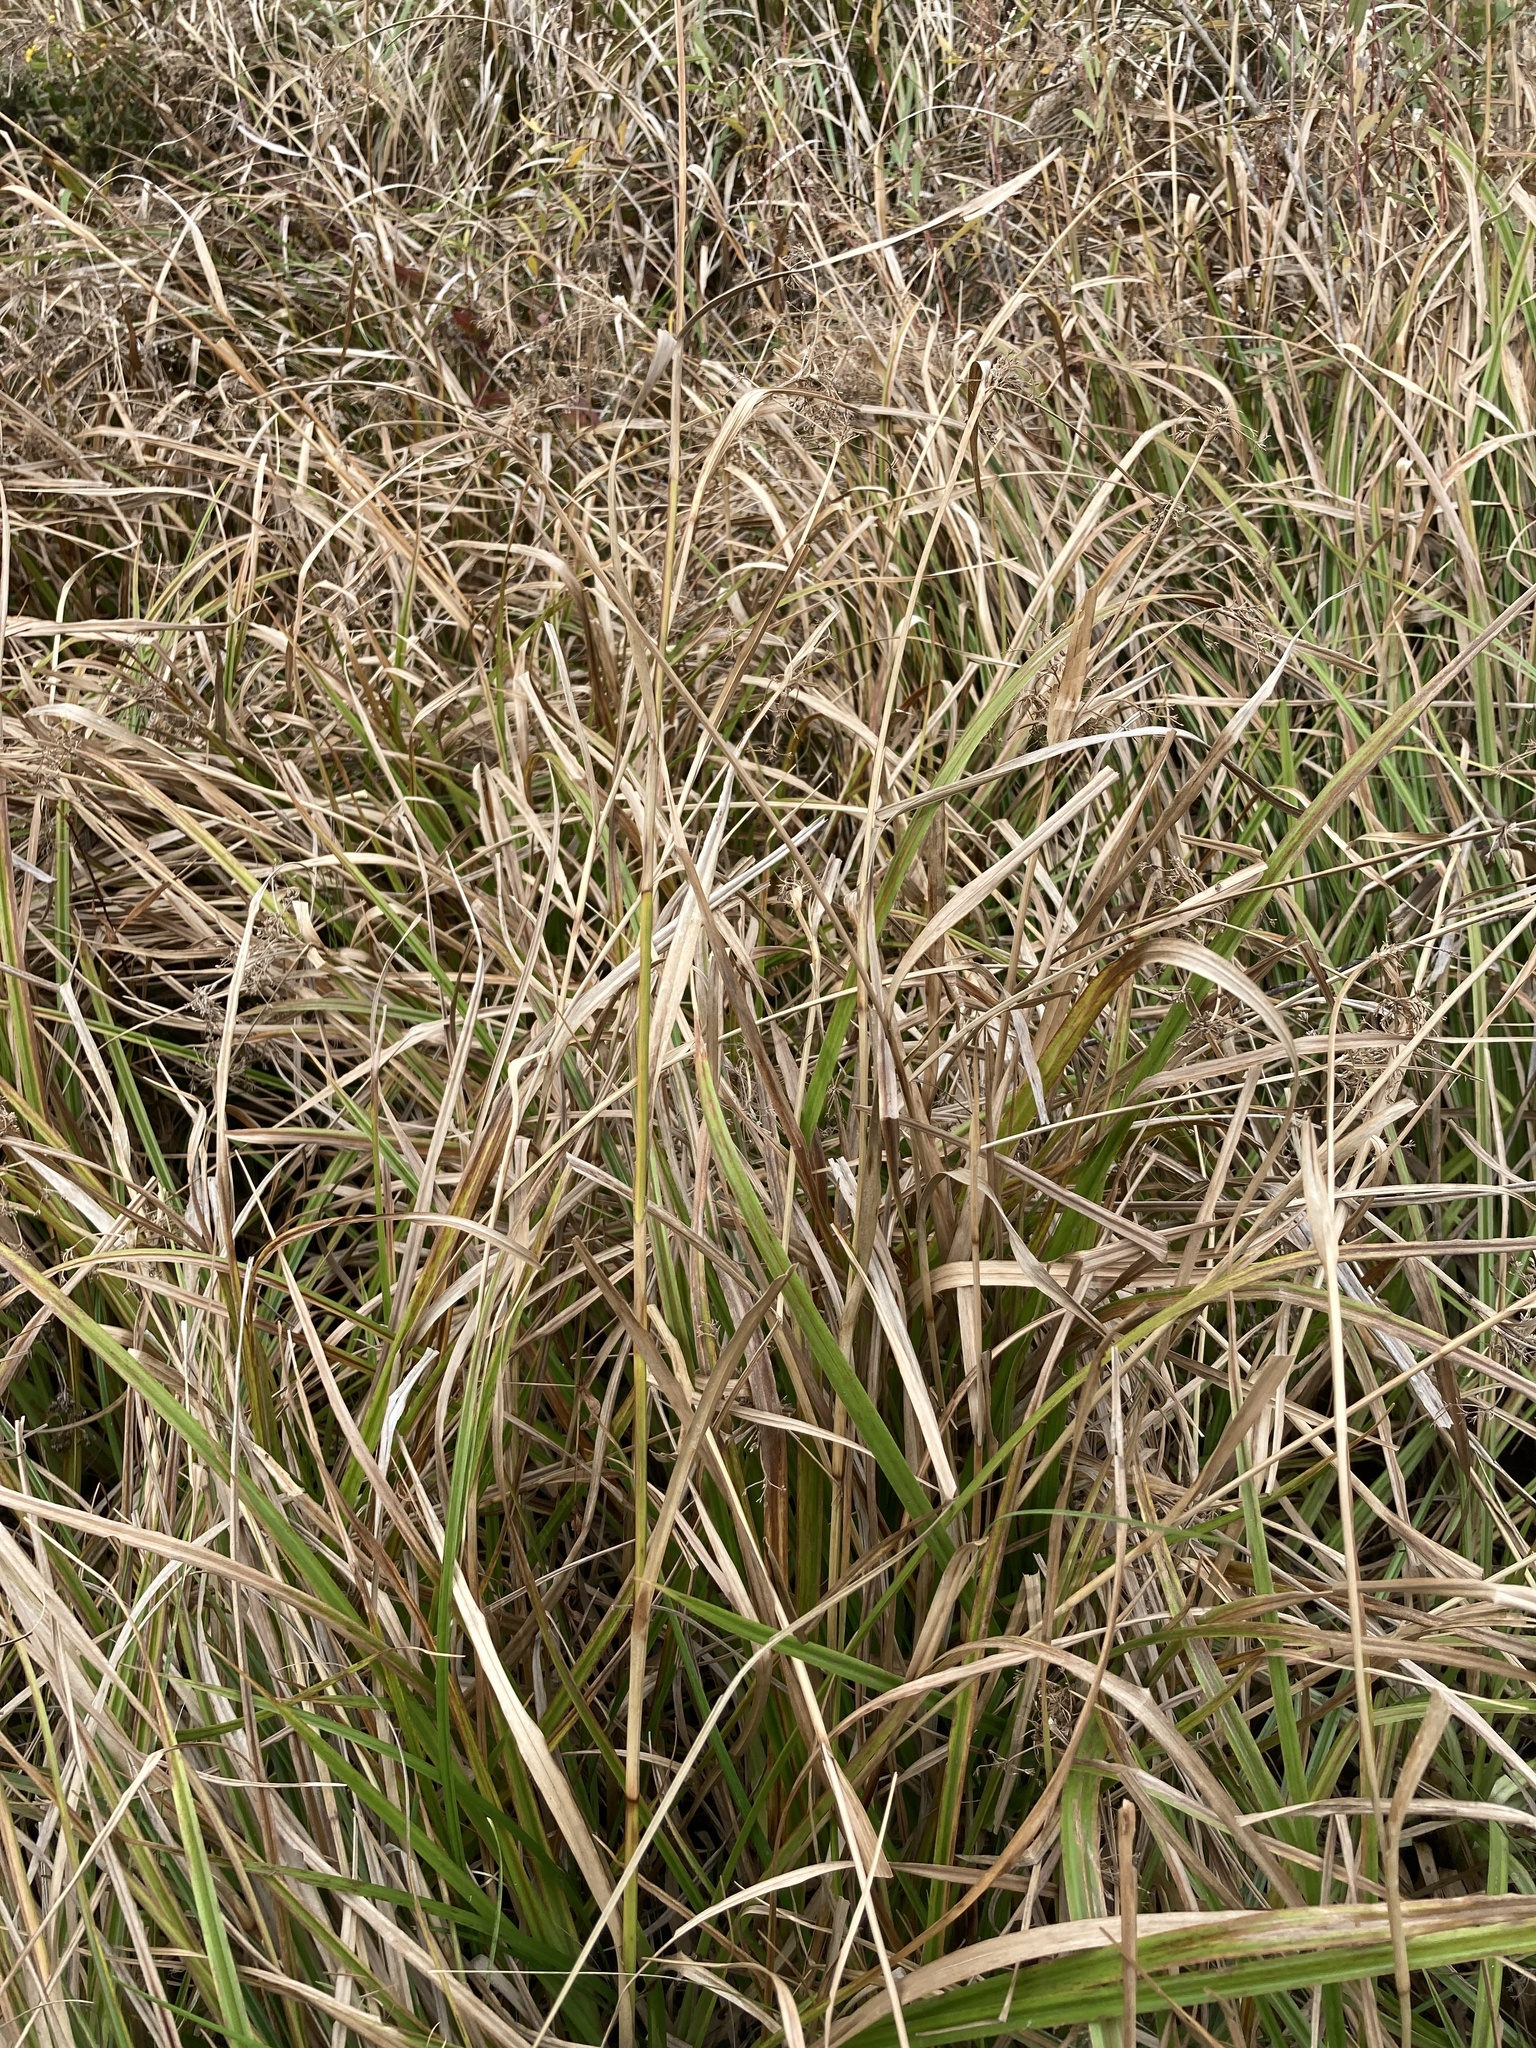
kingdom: Plantae
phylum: Tracheophyta
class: Liliopsida
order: Poales
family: Cyperaceae
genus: Scirpus
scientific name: Scirpus sylvaticus
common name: Wood club-rush
